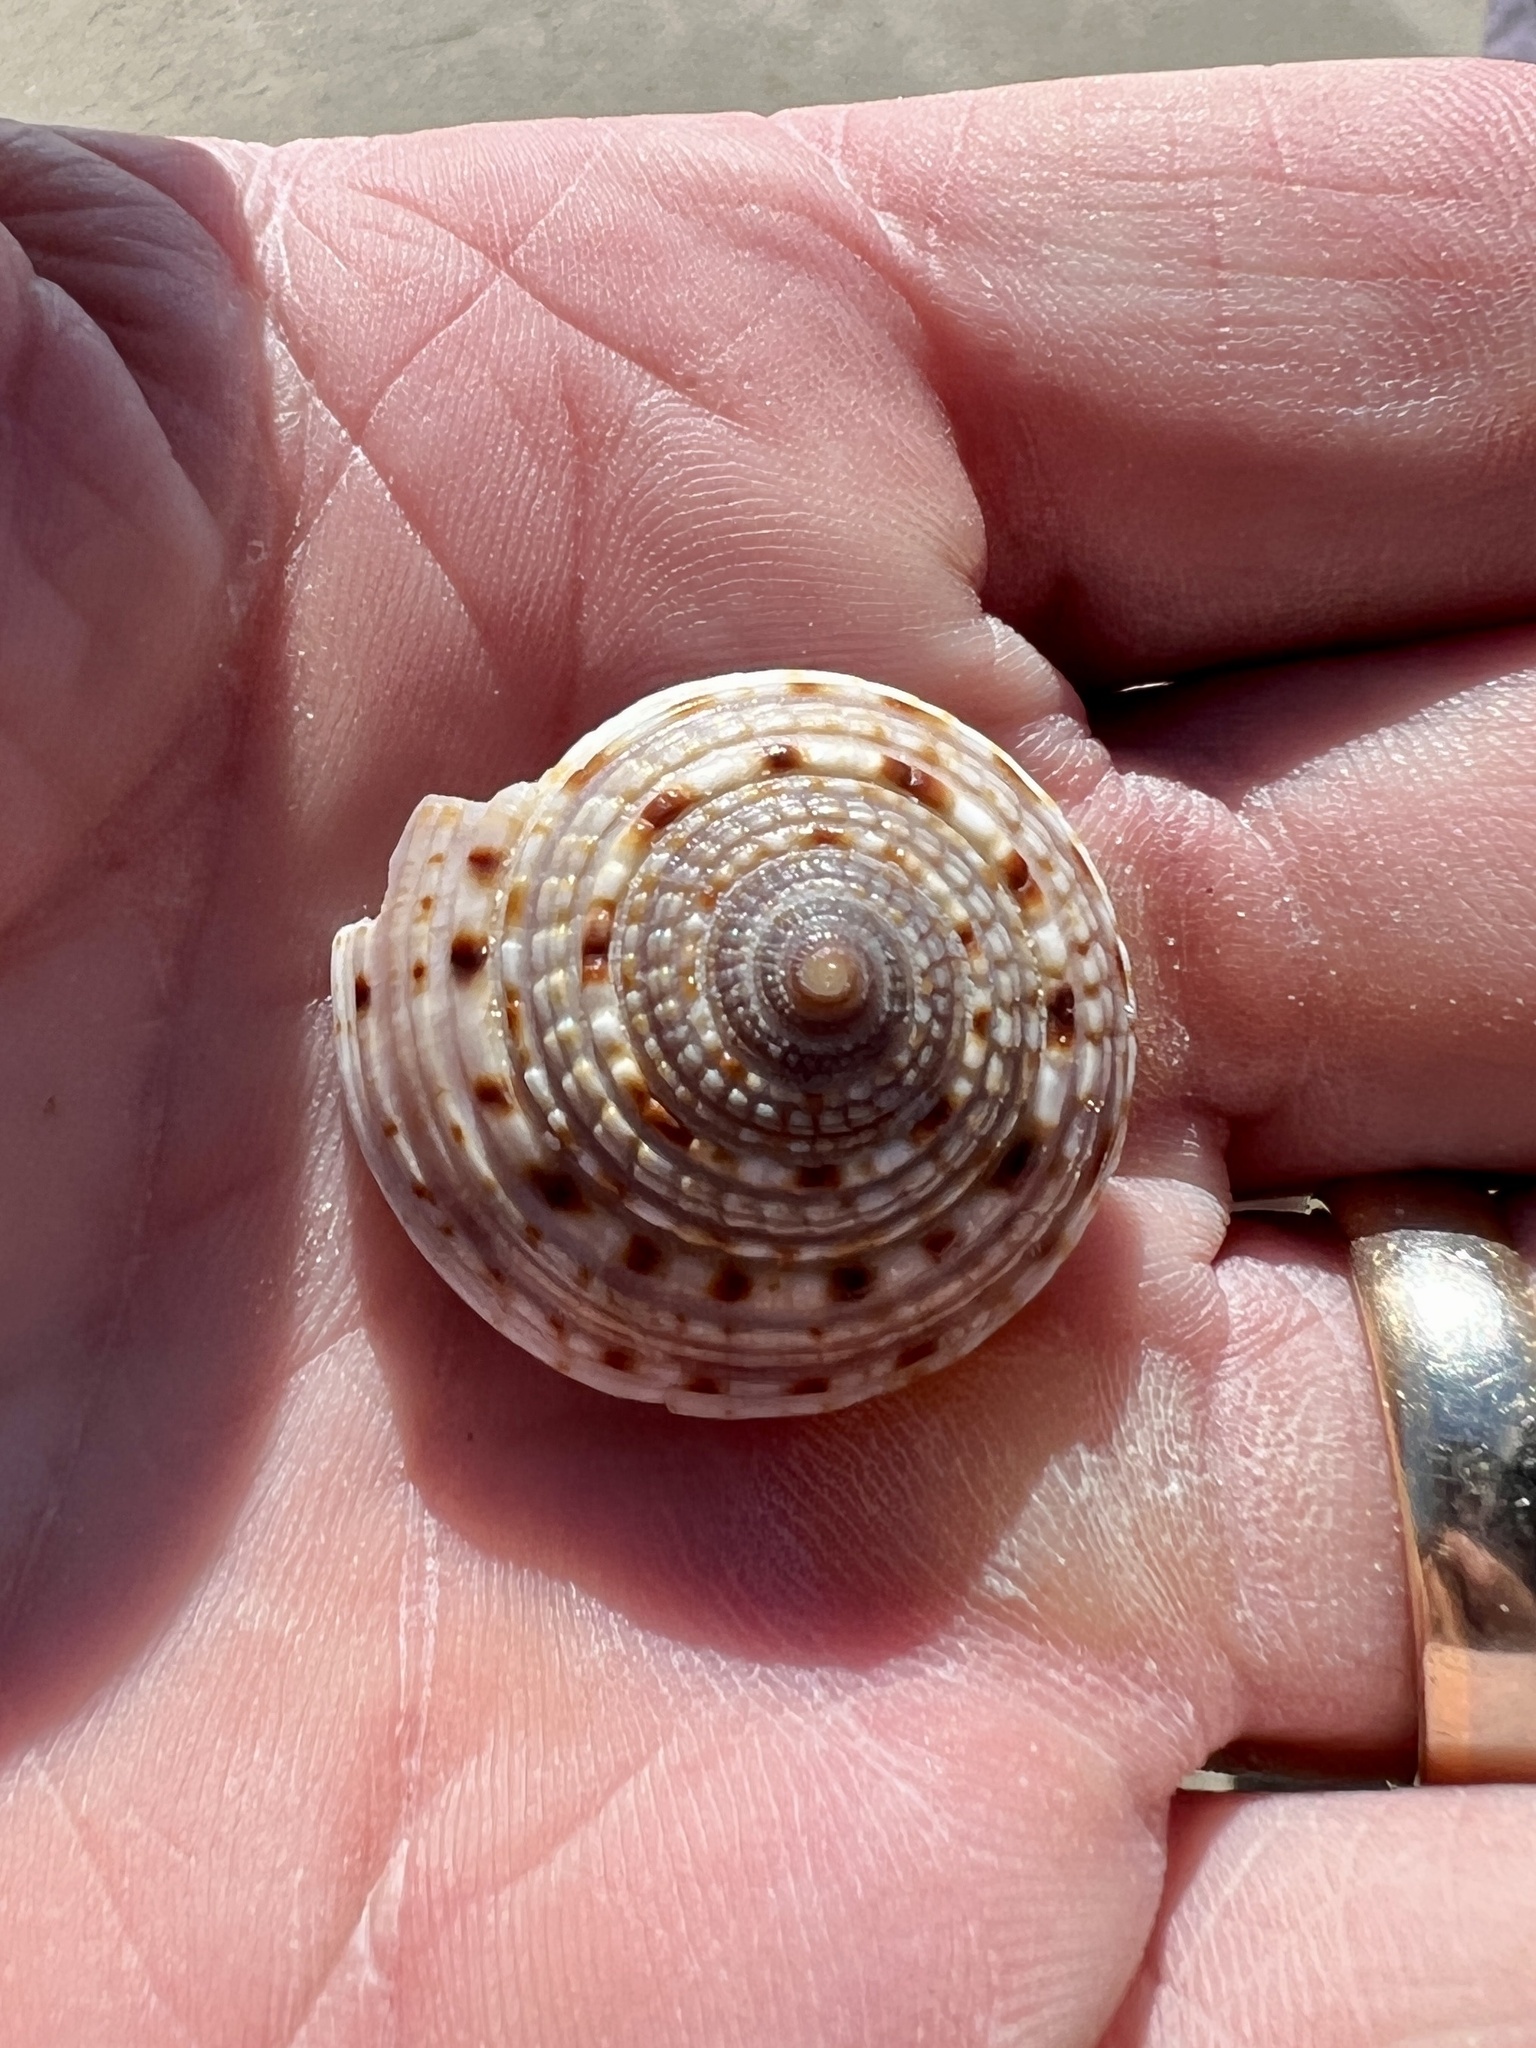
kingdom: Animalia
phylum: Mollusca
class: Gastropoda
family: Architectonicidae
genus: Architectonica
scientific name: Architectonica nobilis
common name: Common sundial
